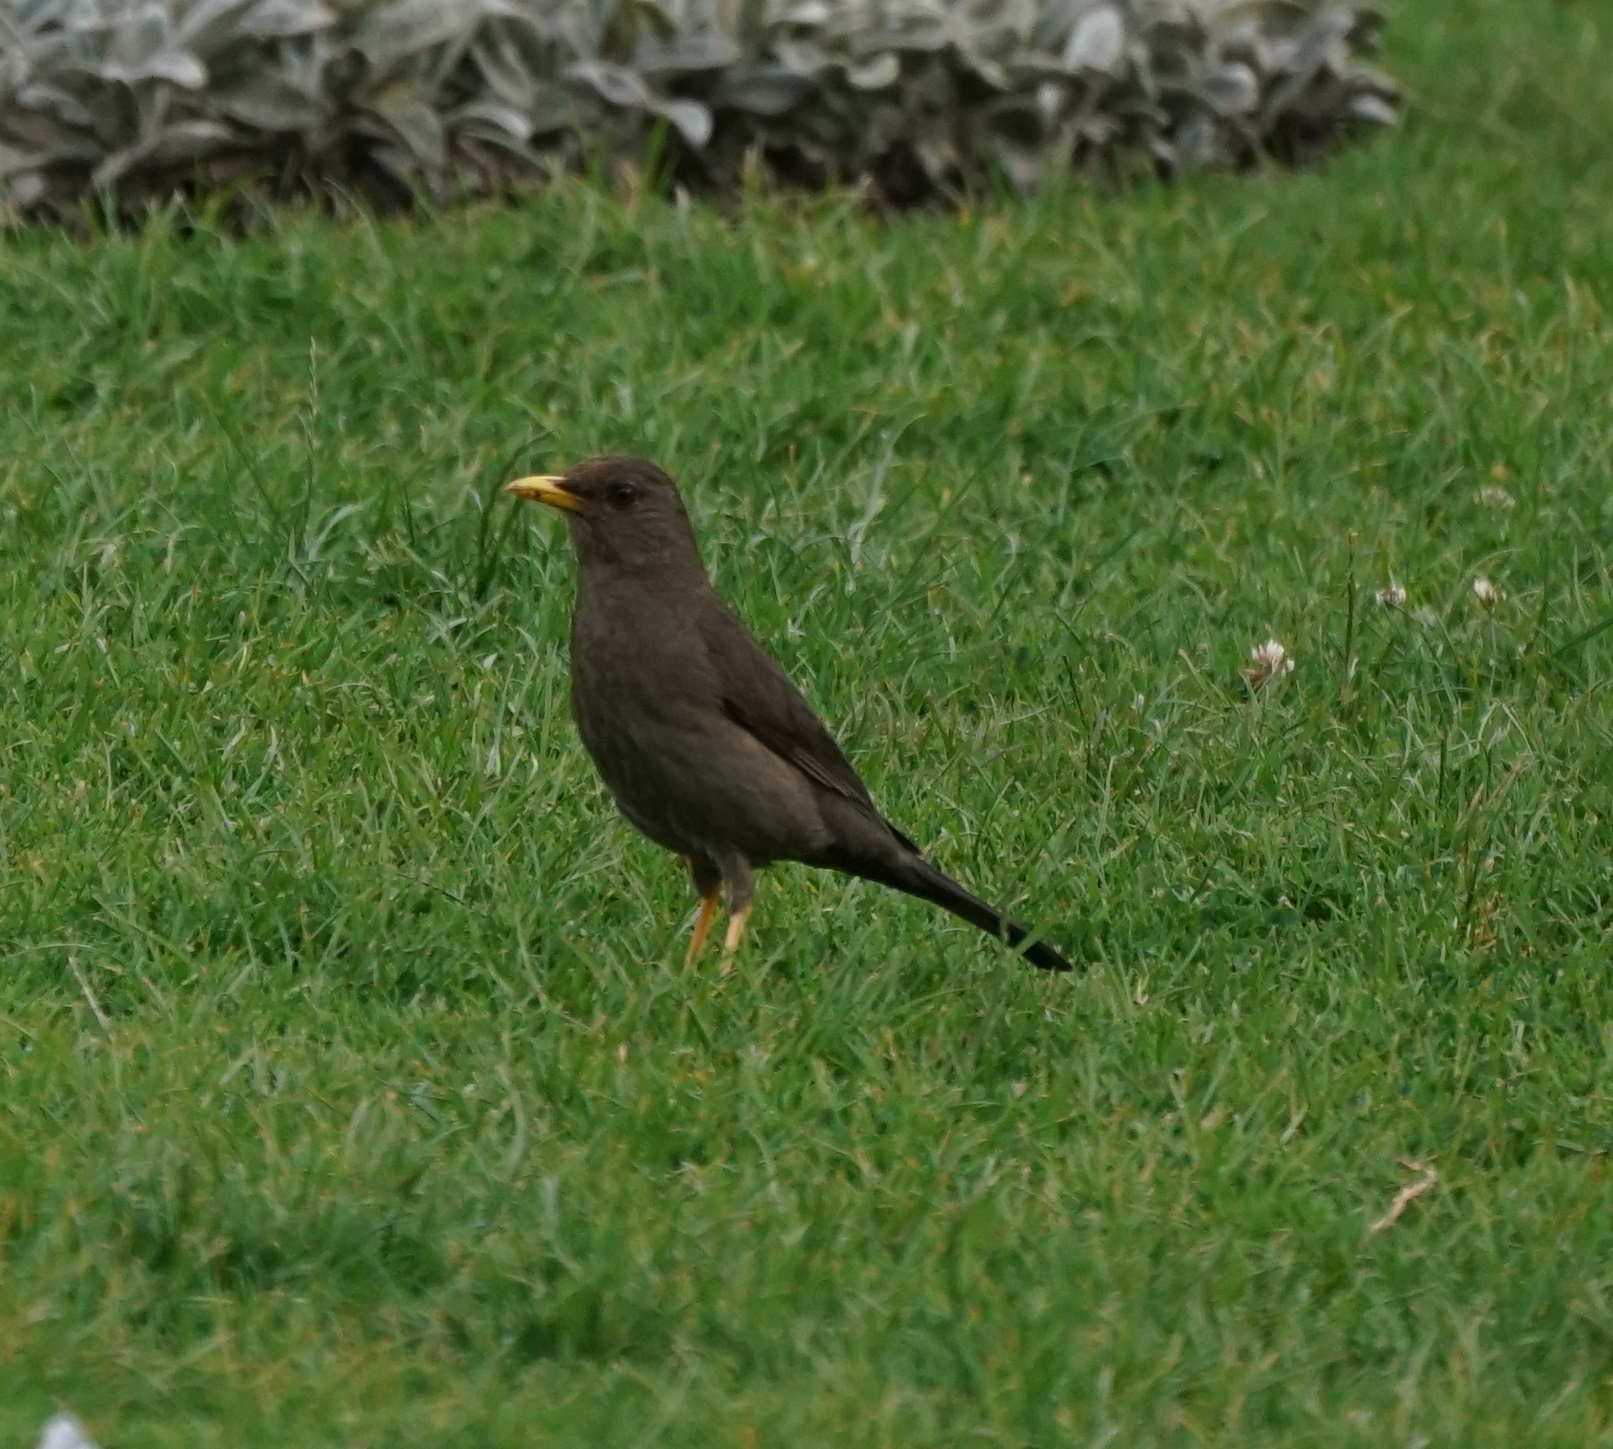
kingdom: Animalia
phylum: Chordata
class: Aves
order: Passeriformes
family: Turdidae
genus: Turdus
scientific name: Turdus chiguanco
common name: Chiguanco thrush
